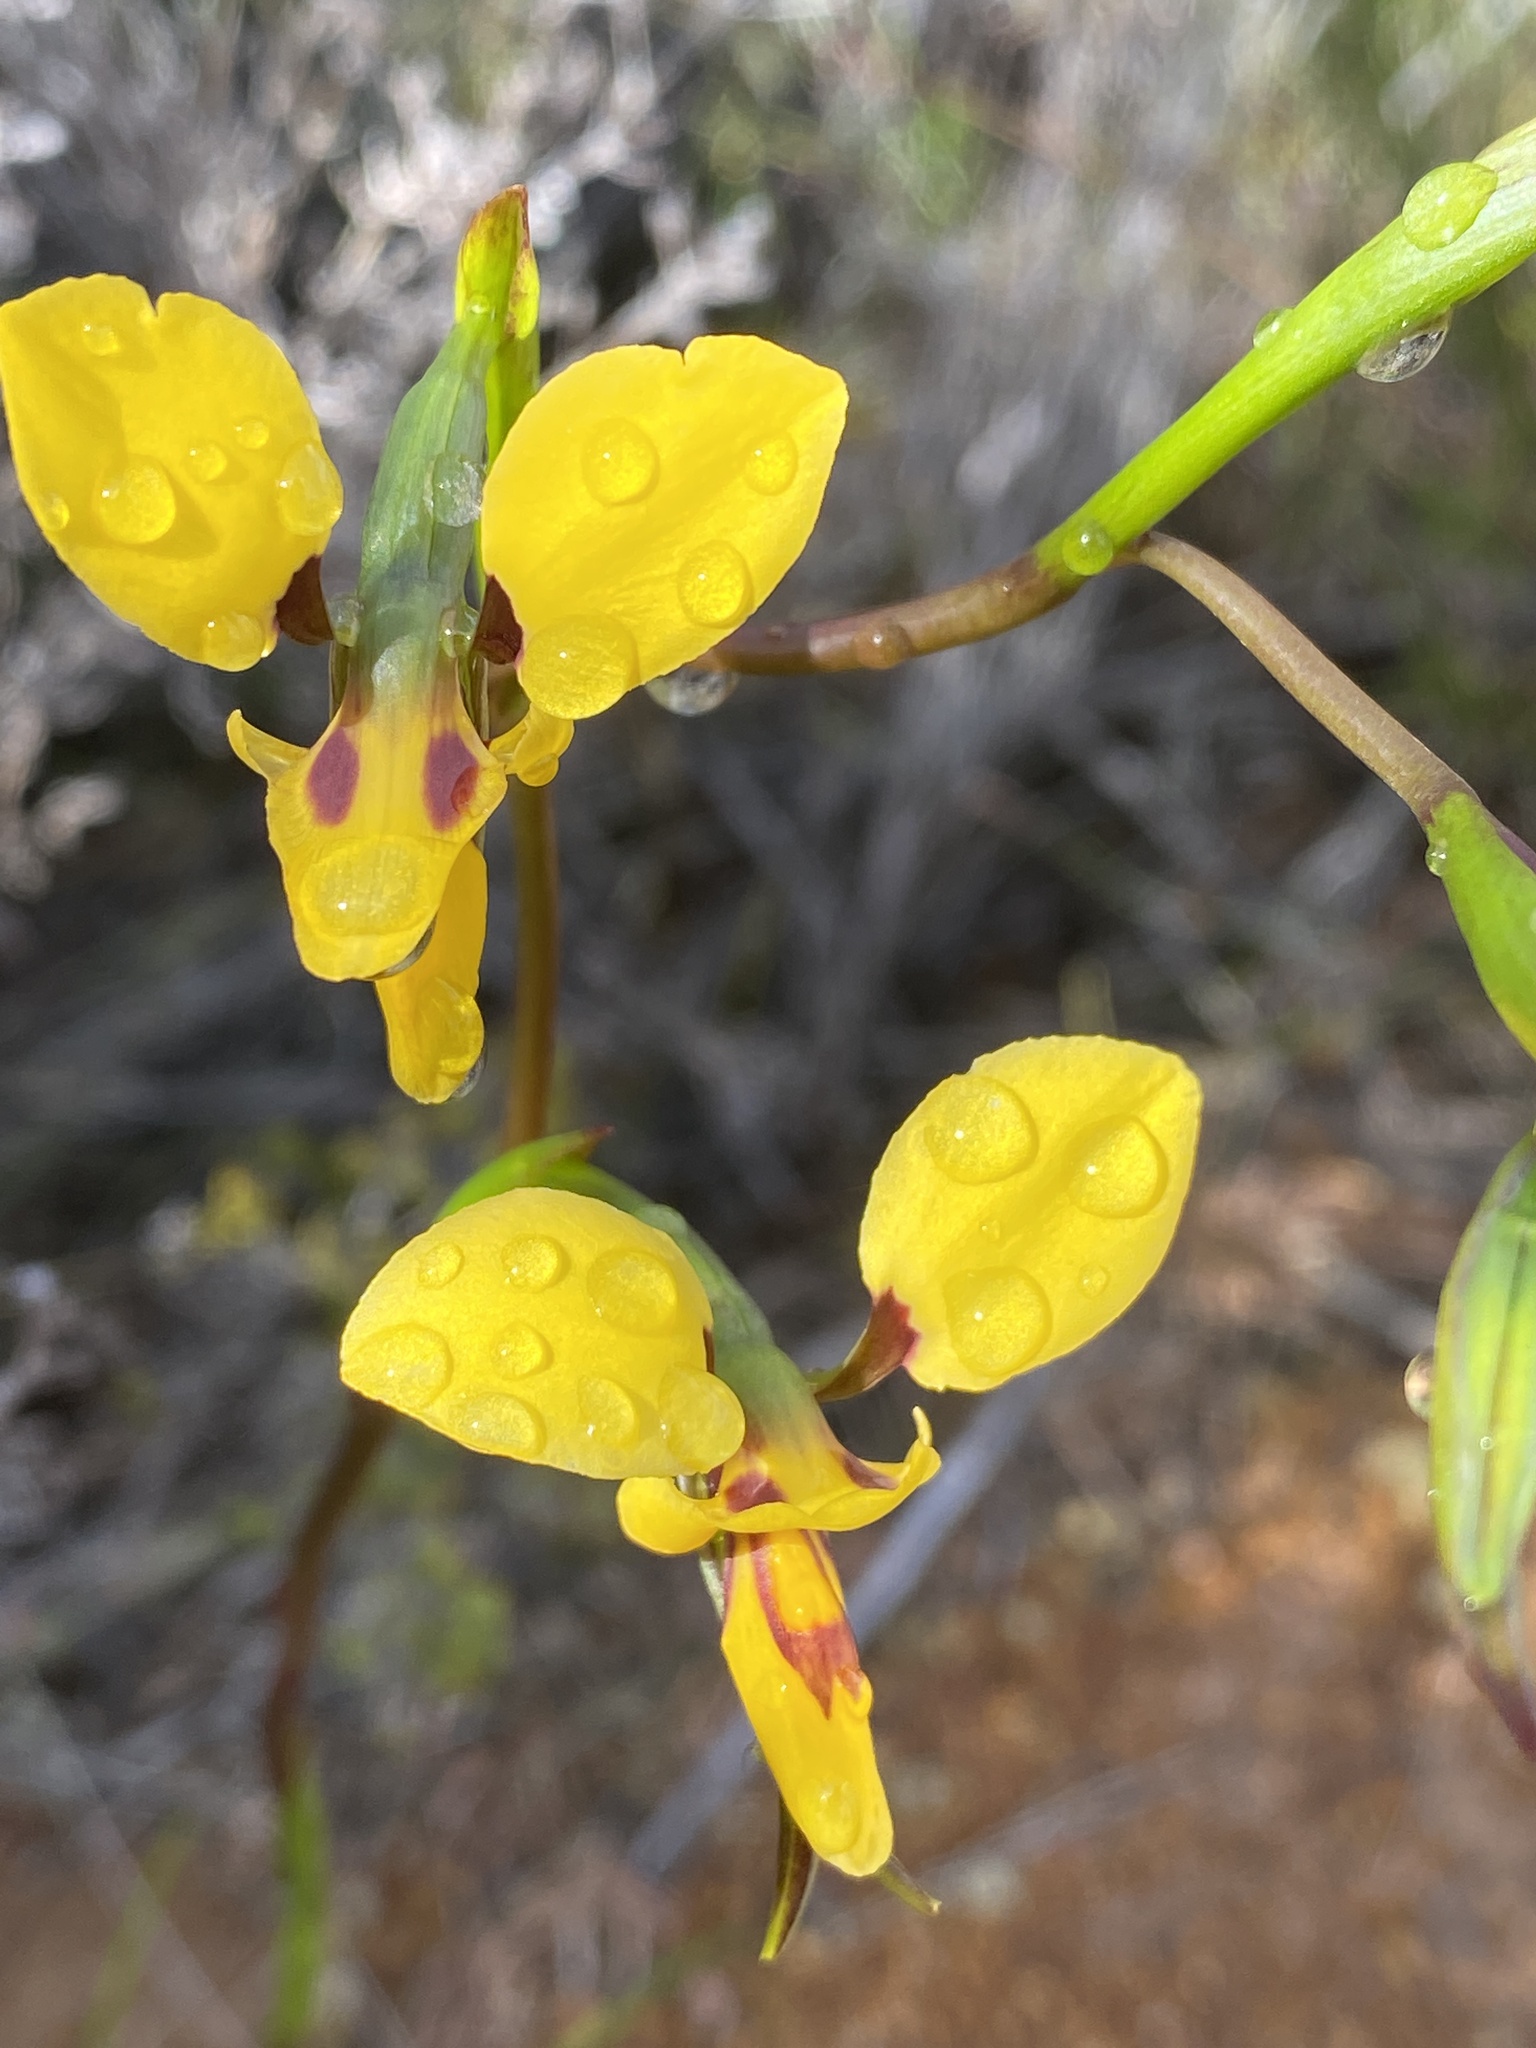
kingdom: Plantae
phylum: Tracheophyta
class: Liliopsida
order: Asparagales
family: Orchidaceae
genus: Diuris
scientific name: Diuris concinna
